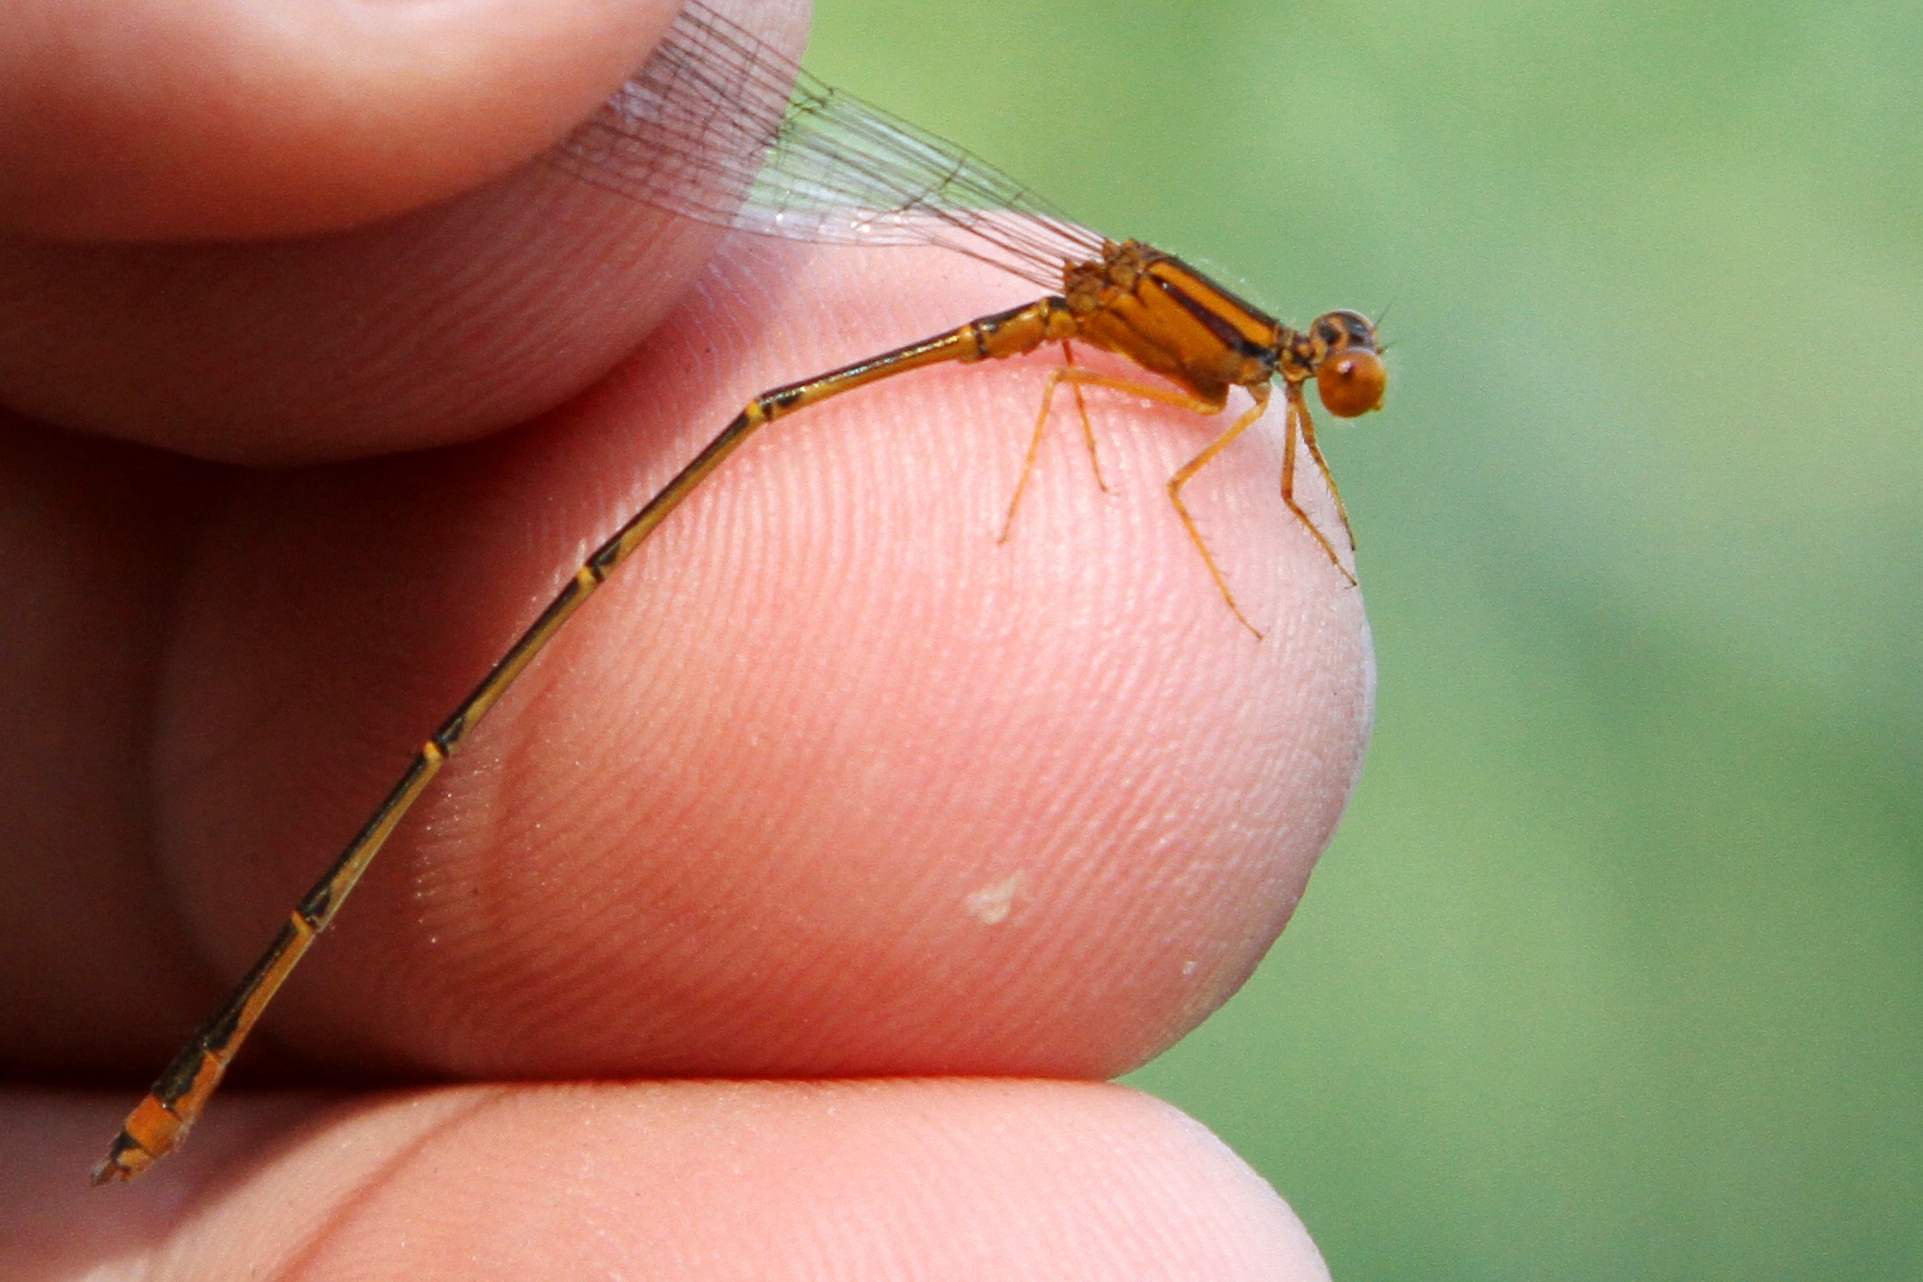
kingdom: Animalia
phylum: Arthropoda
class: Insecta
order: Odonata
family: Coenagrionidae
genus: Enallagma
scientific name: Enallagma signatum
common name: Orange bluet
